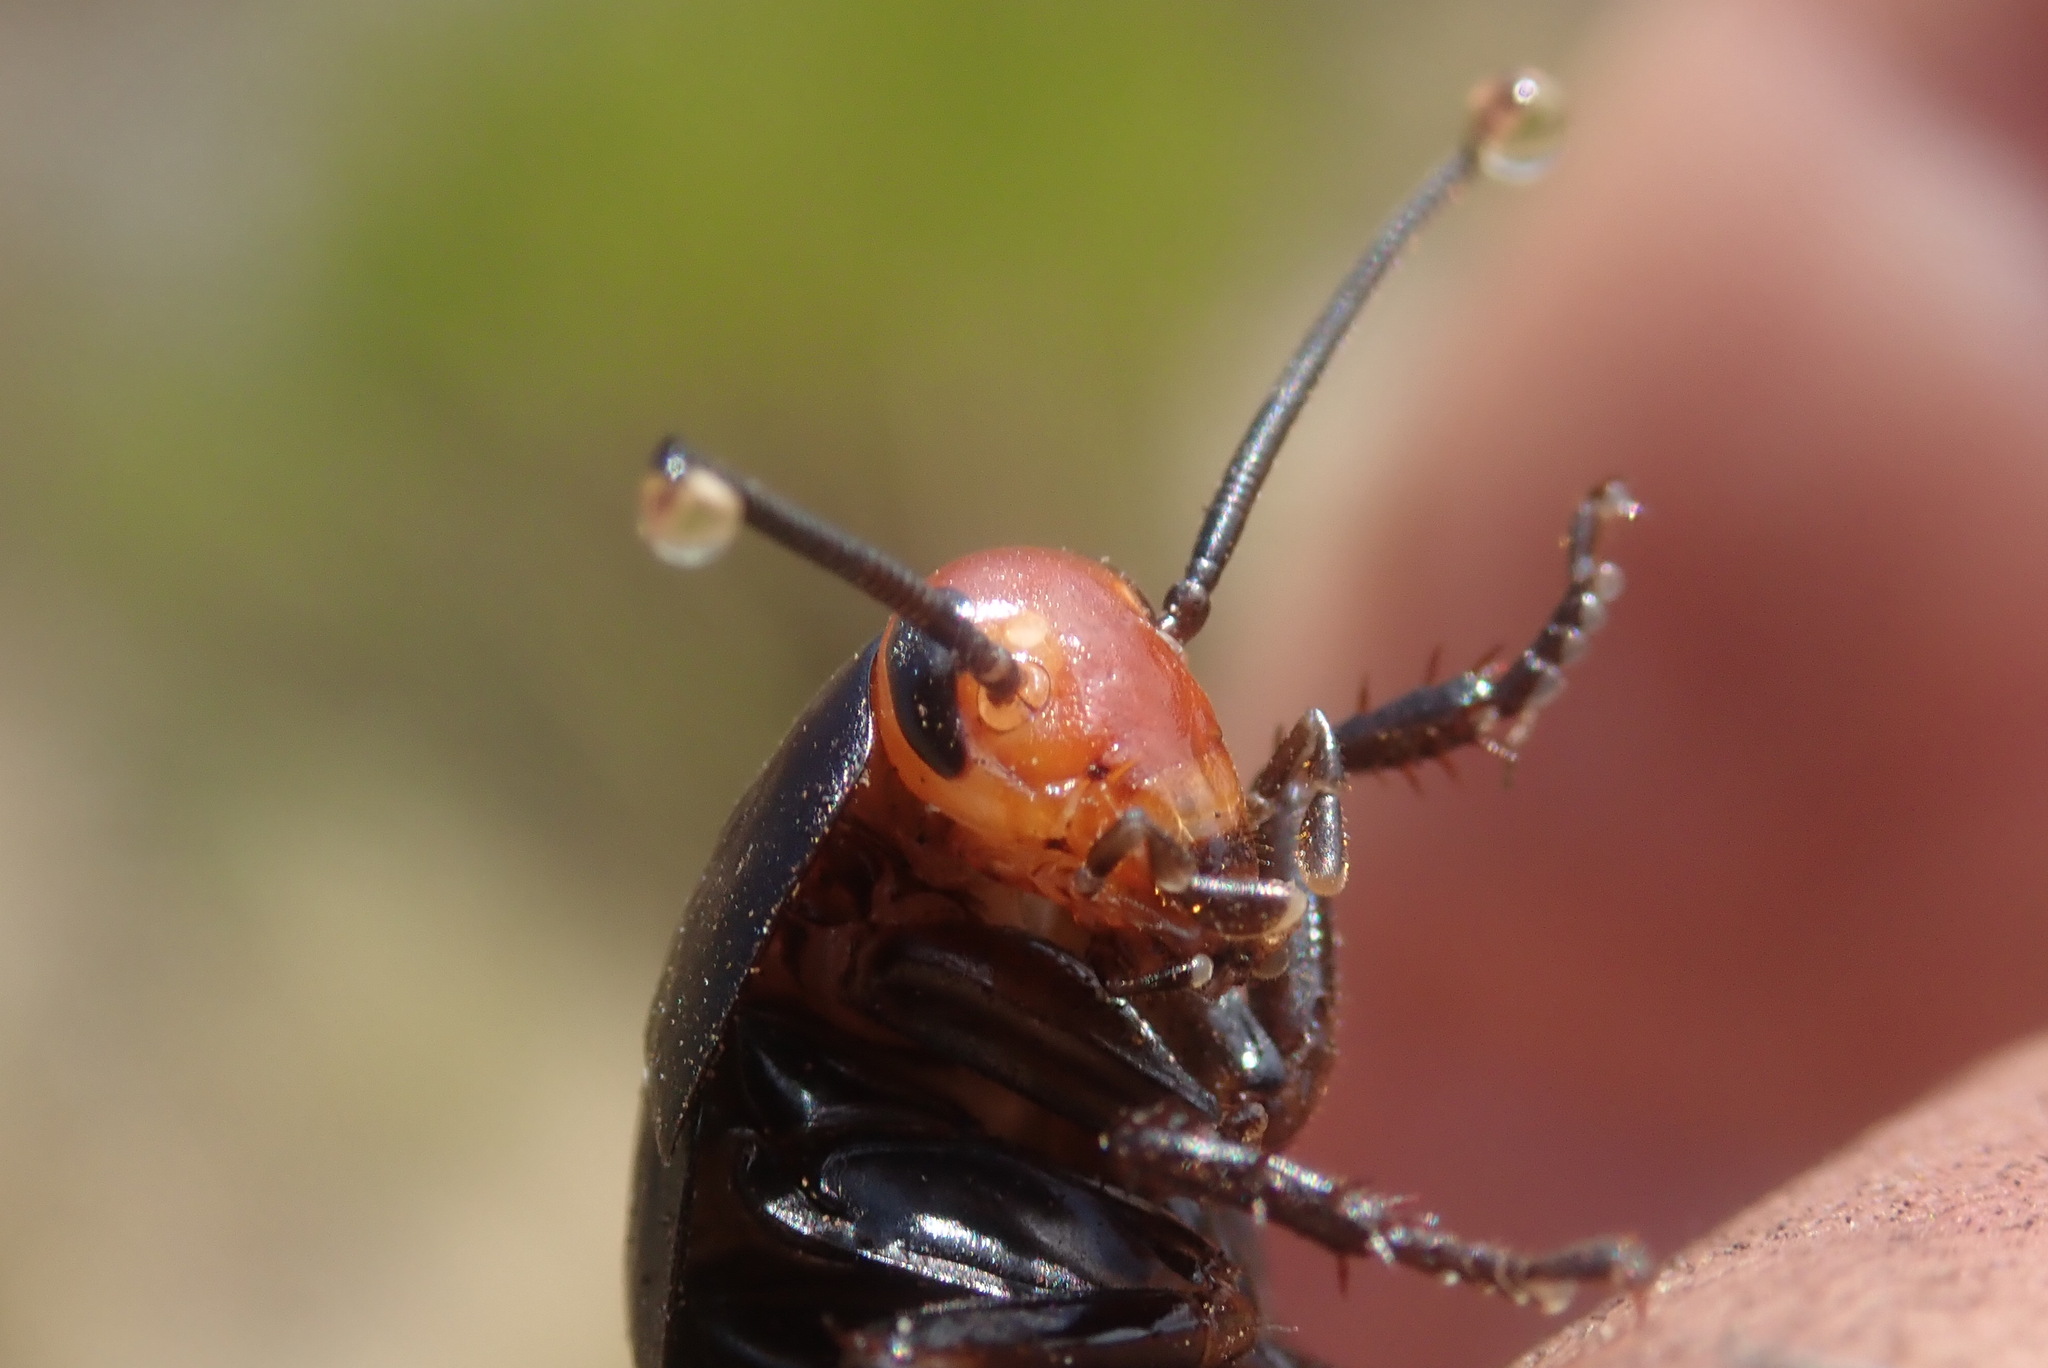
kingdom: Animalia
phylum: Arthropoda
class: Insecta
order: Blattodea
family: Blattidae
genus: Deropeltis
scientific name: Deropeltis erythrocephala
